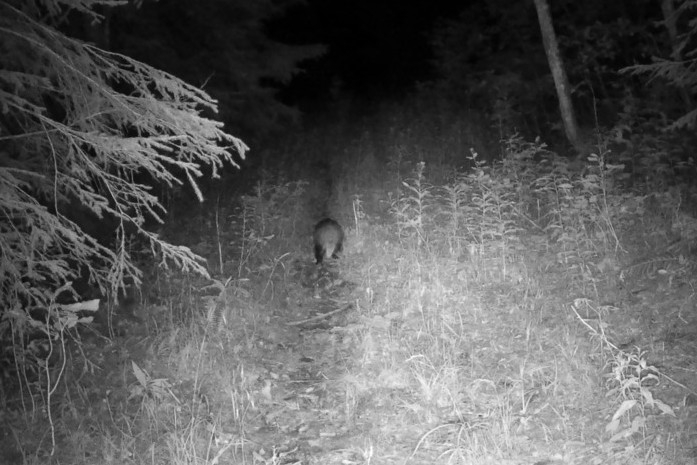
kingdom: Animalia
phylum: Chordata
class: Mammalia
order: Carnivora
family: Mustelidae
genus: Meles
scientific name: Meles meles
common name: Eurasian badger
